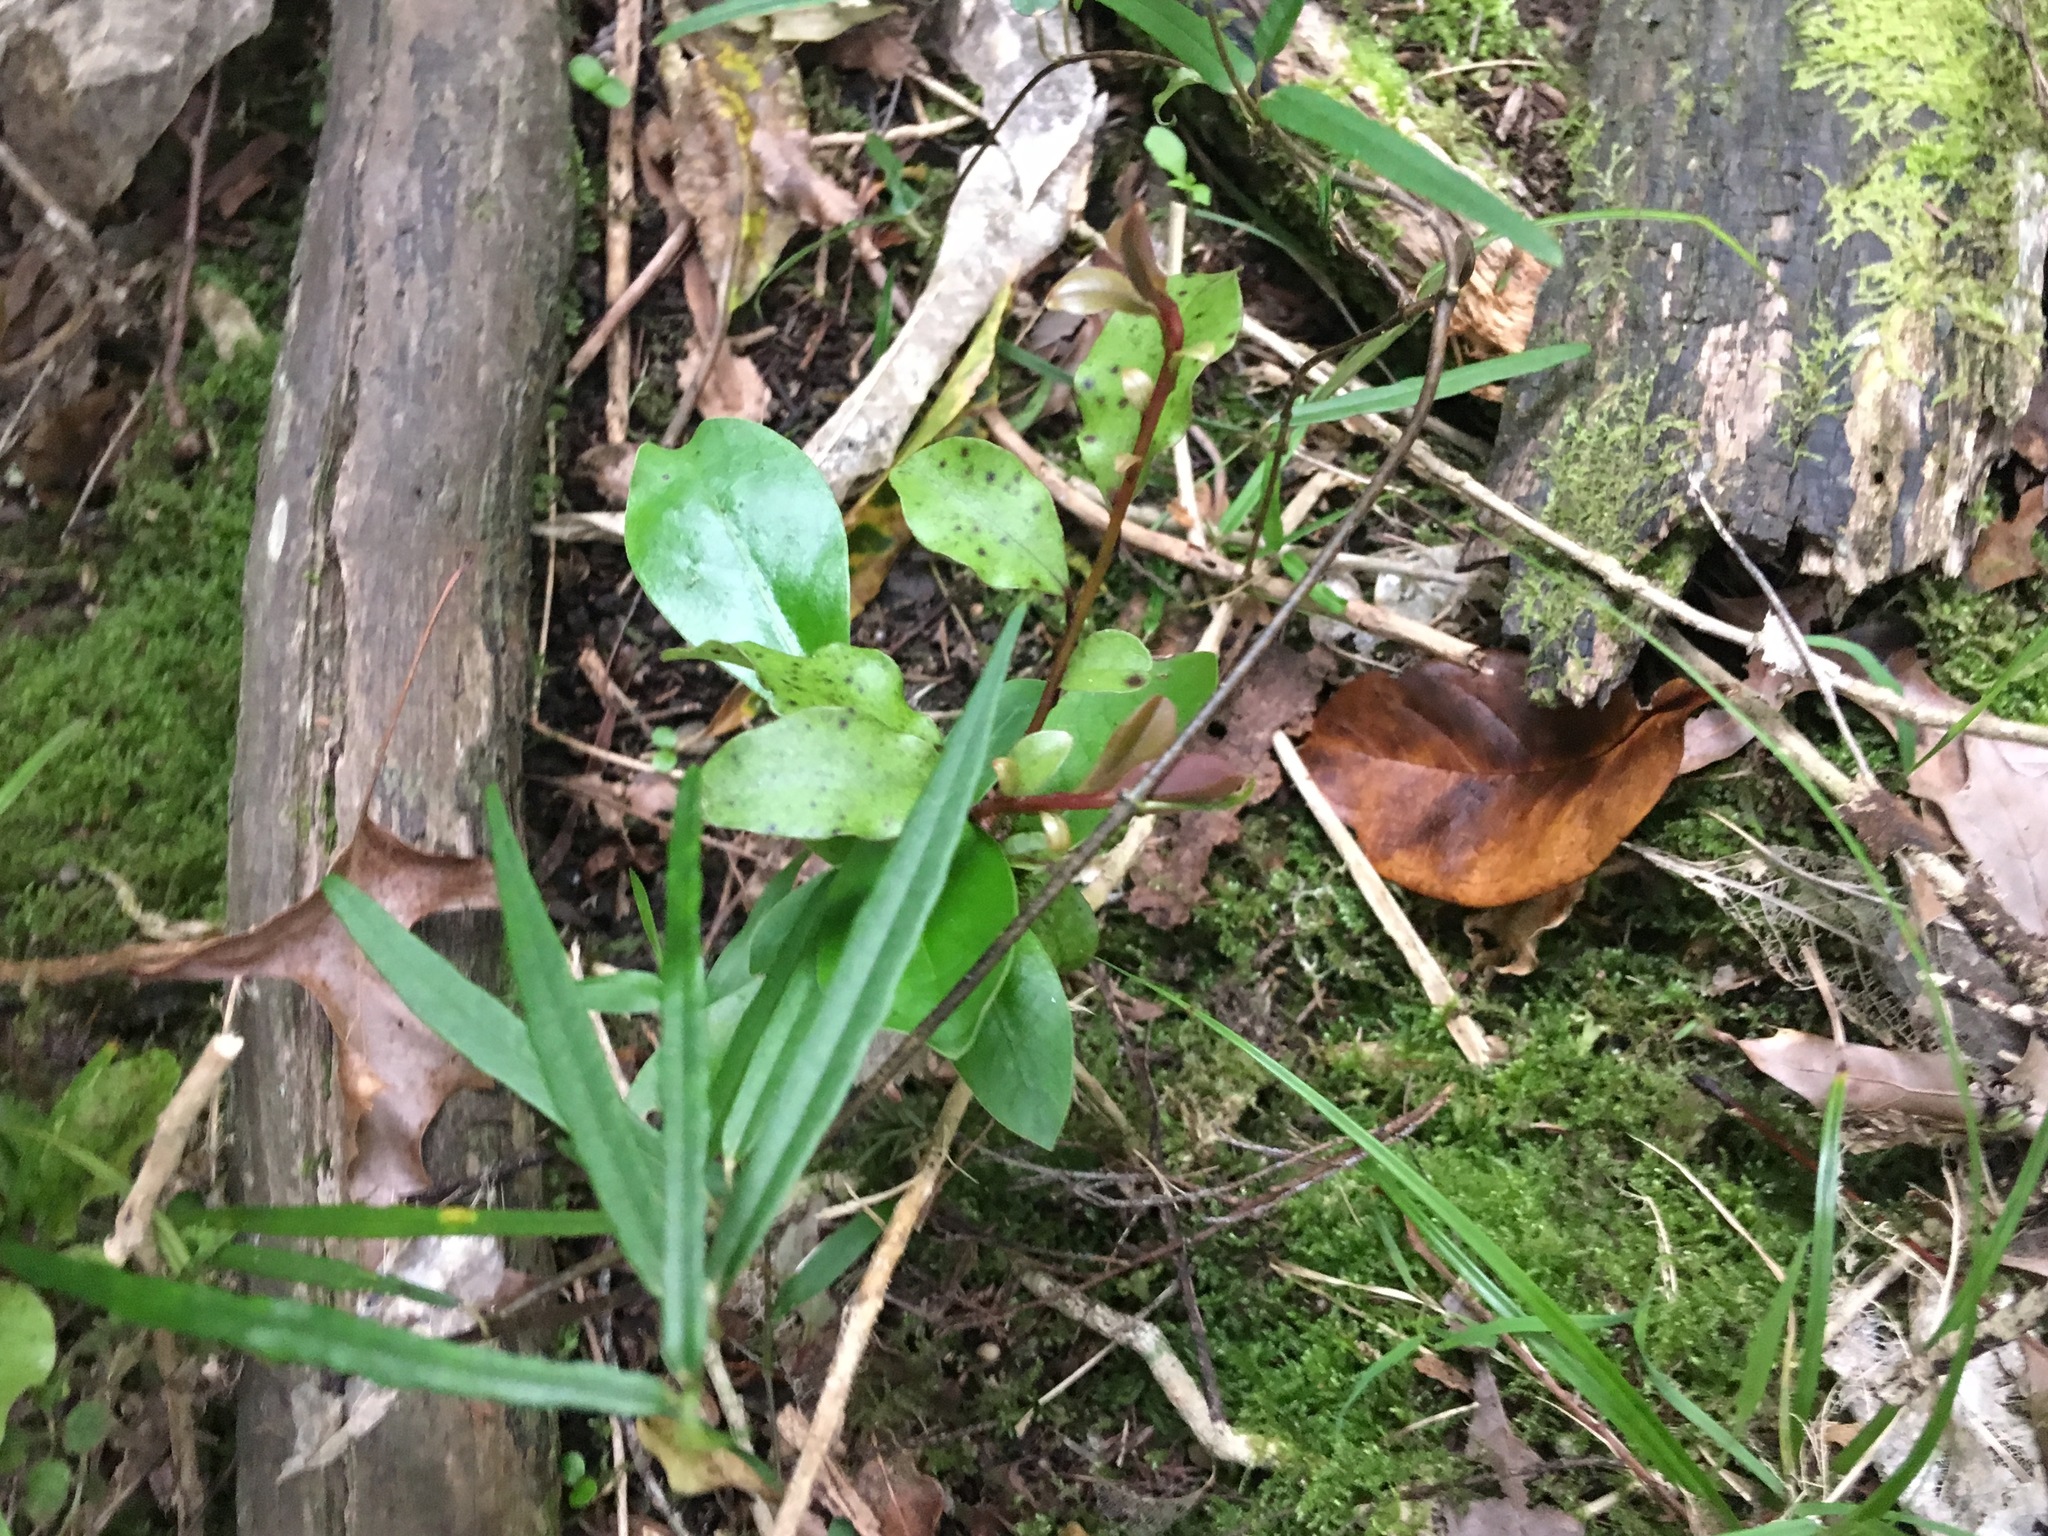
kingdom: Plantae
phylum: Tracheophyta
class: Magnoliopsida
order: Ericales
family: Primulaceae
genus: Myrsine
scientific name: Myrsine australis
